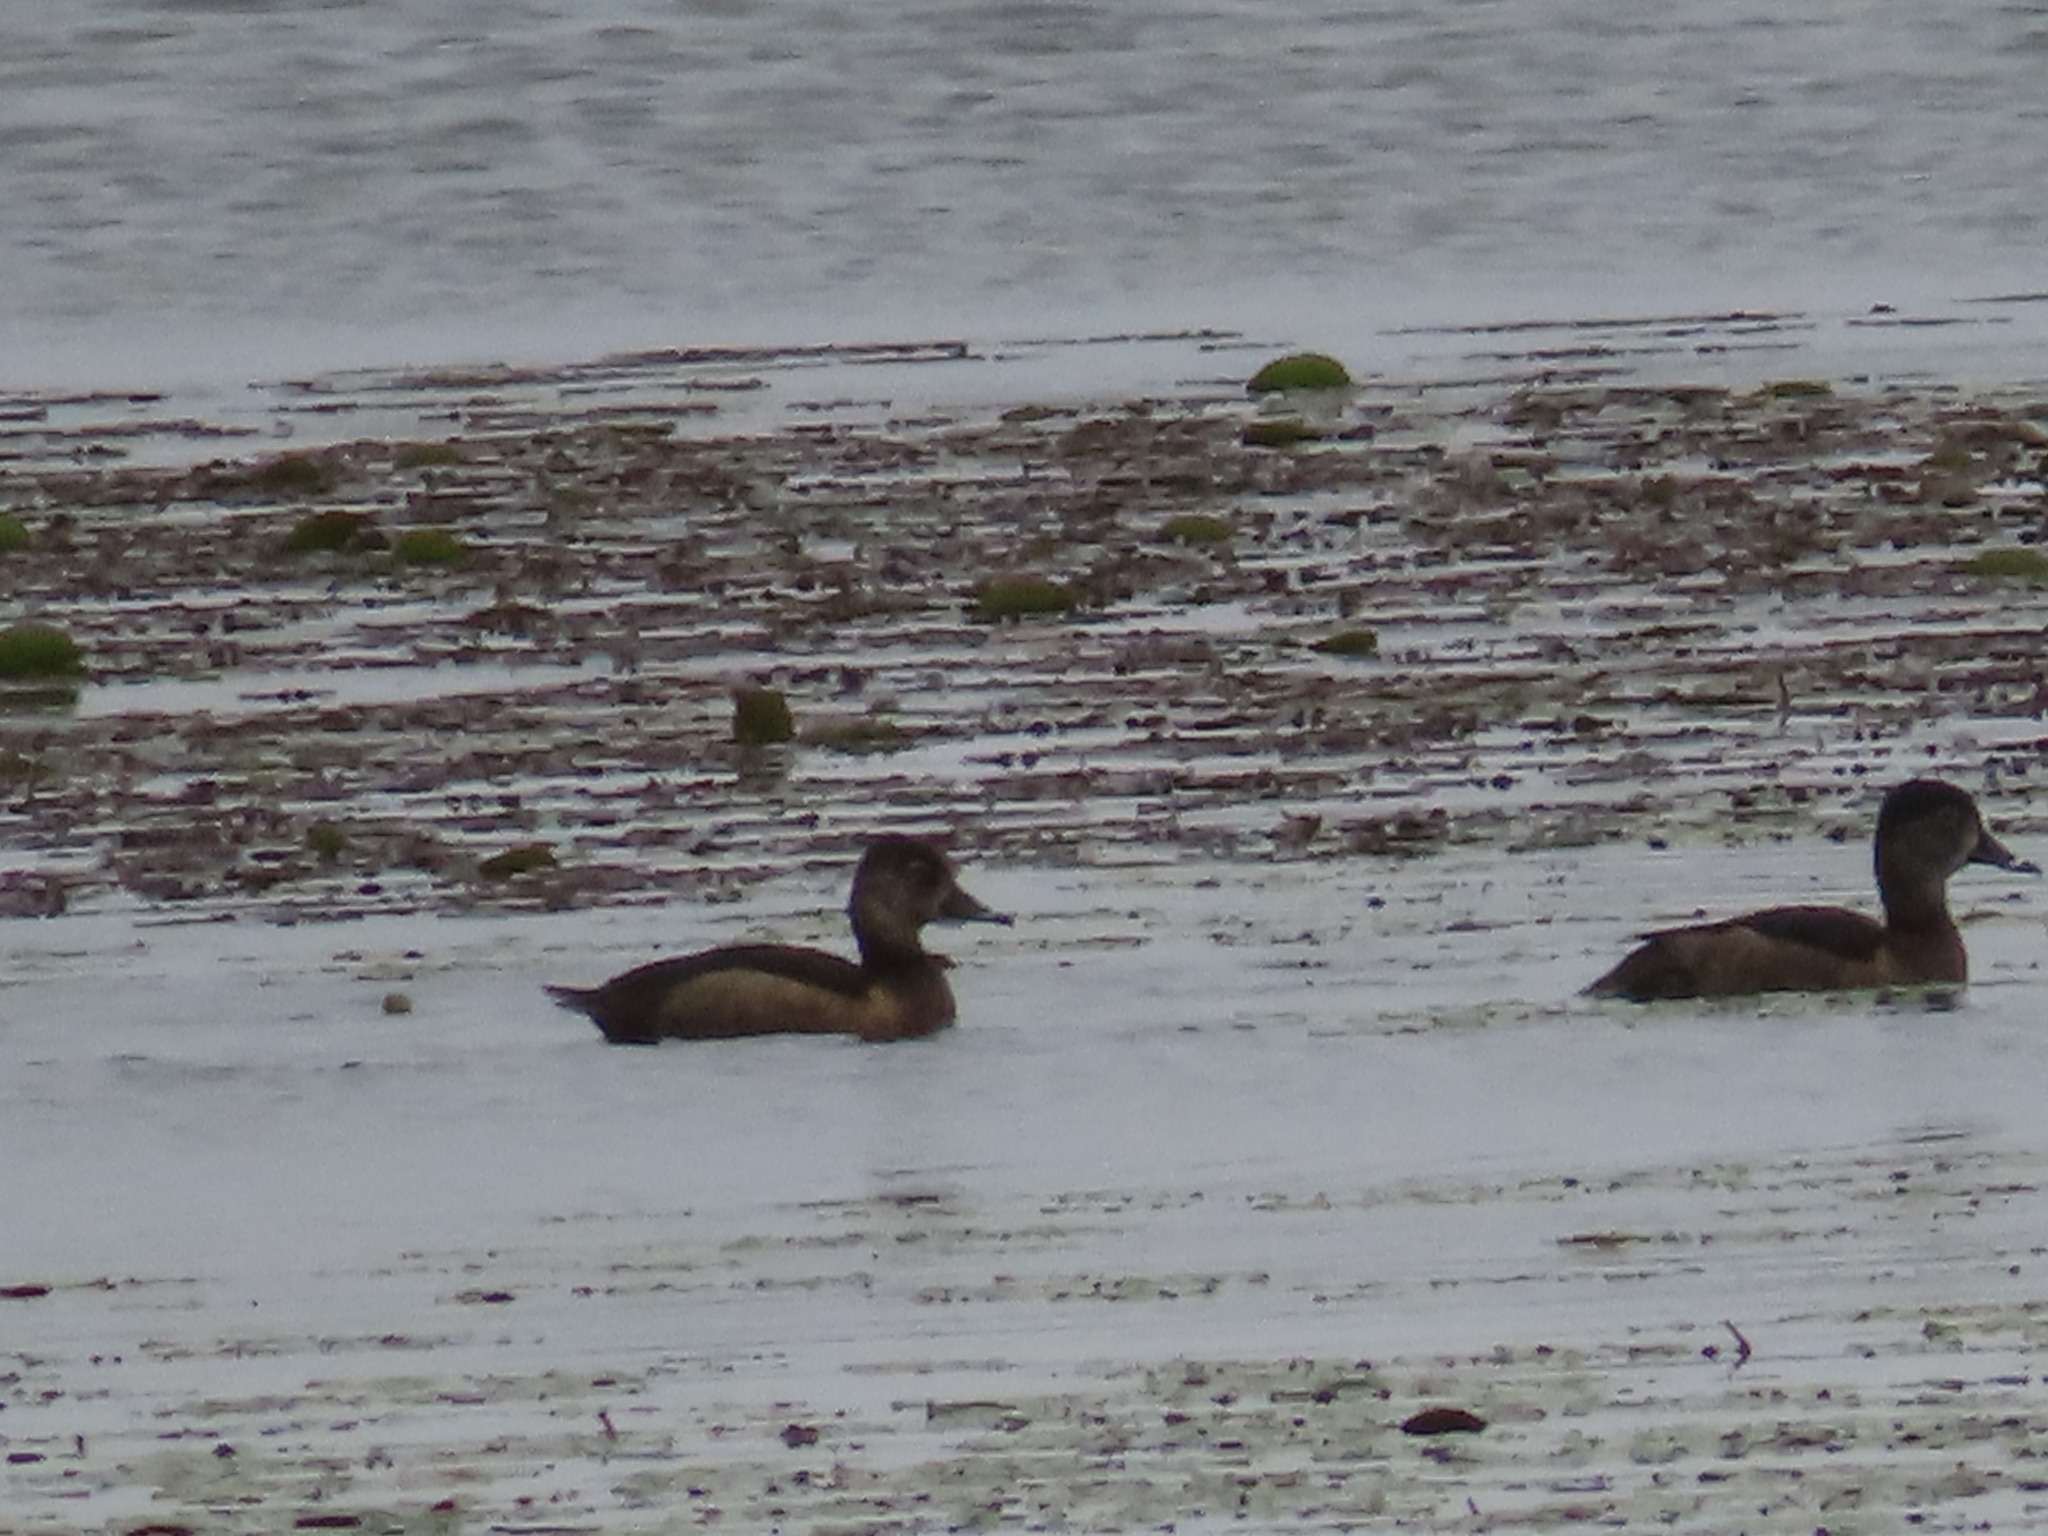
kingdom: Animalia
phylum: Chordata
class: Aves
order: Anseriformes
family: Anatidae
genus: Aythya
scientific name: Aythya collaris
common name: Ring-necked duck
